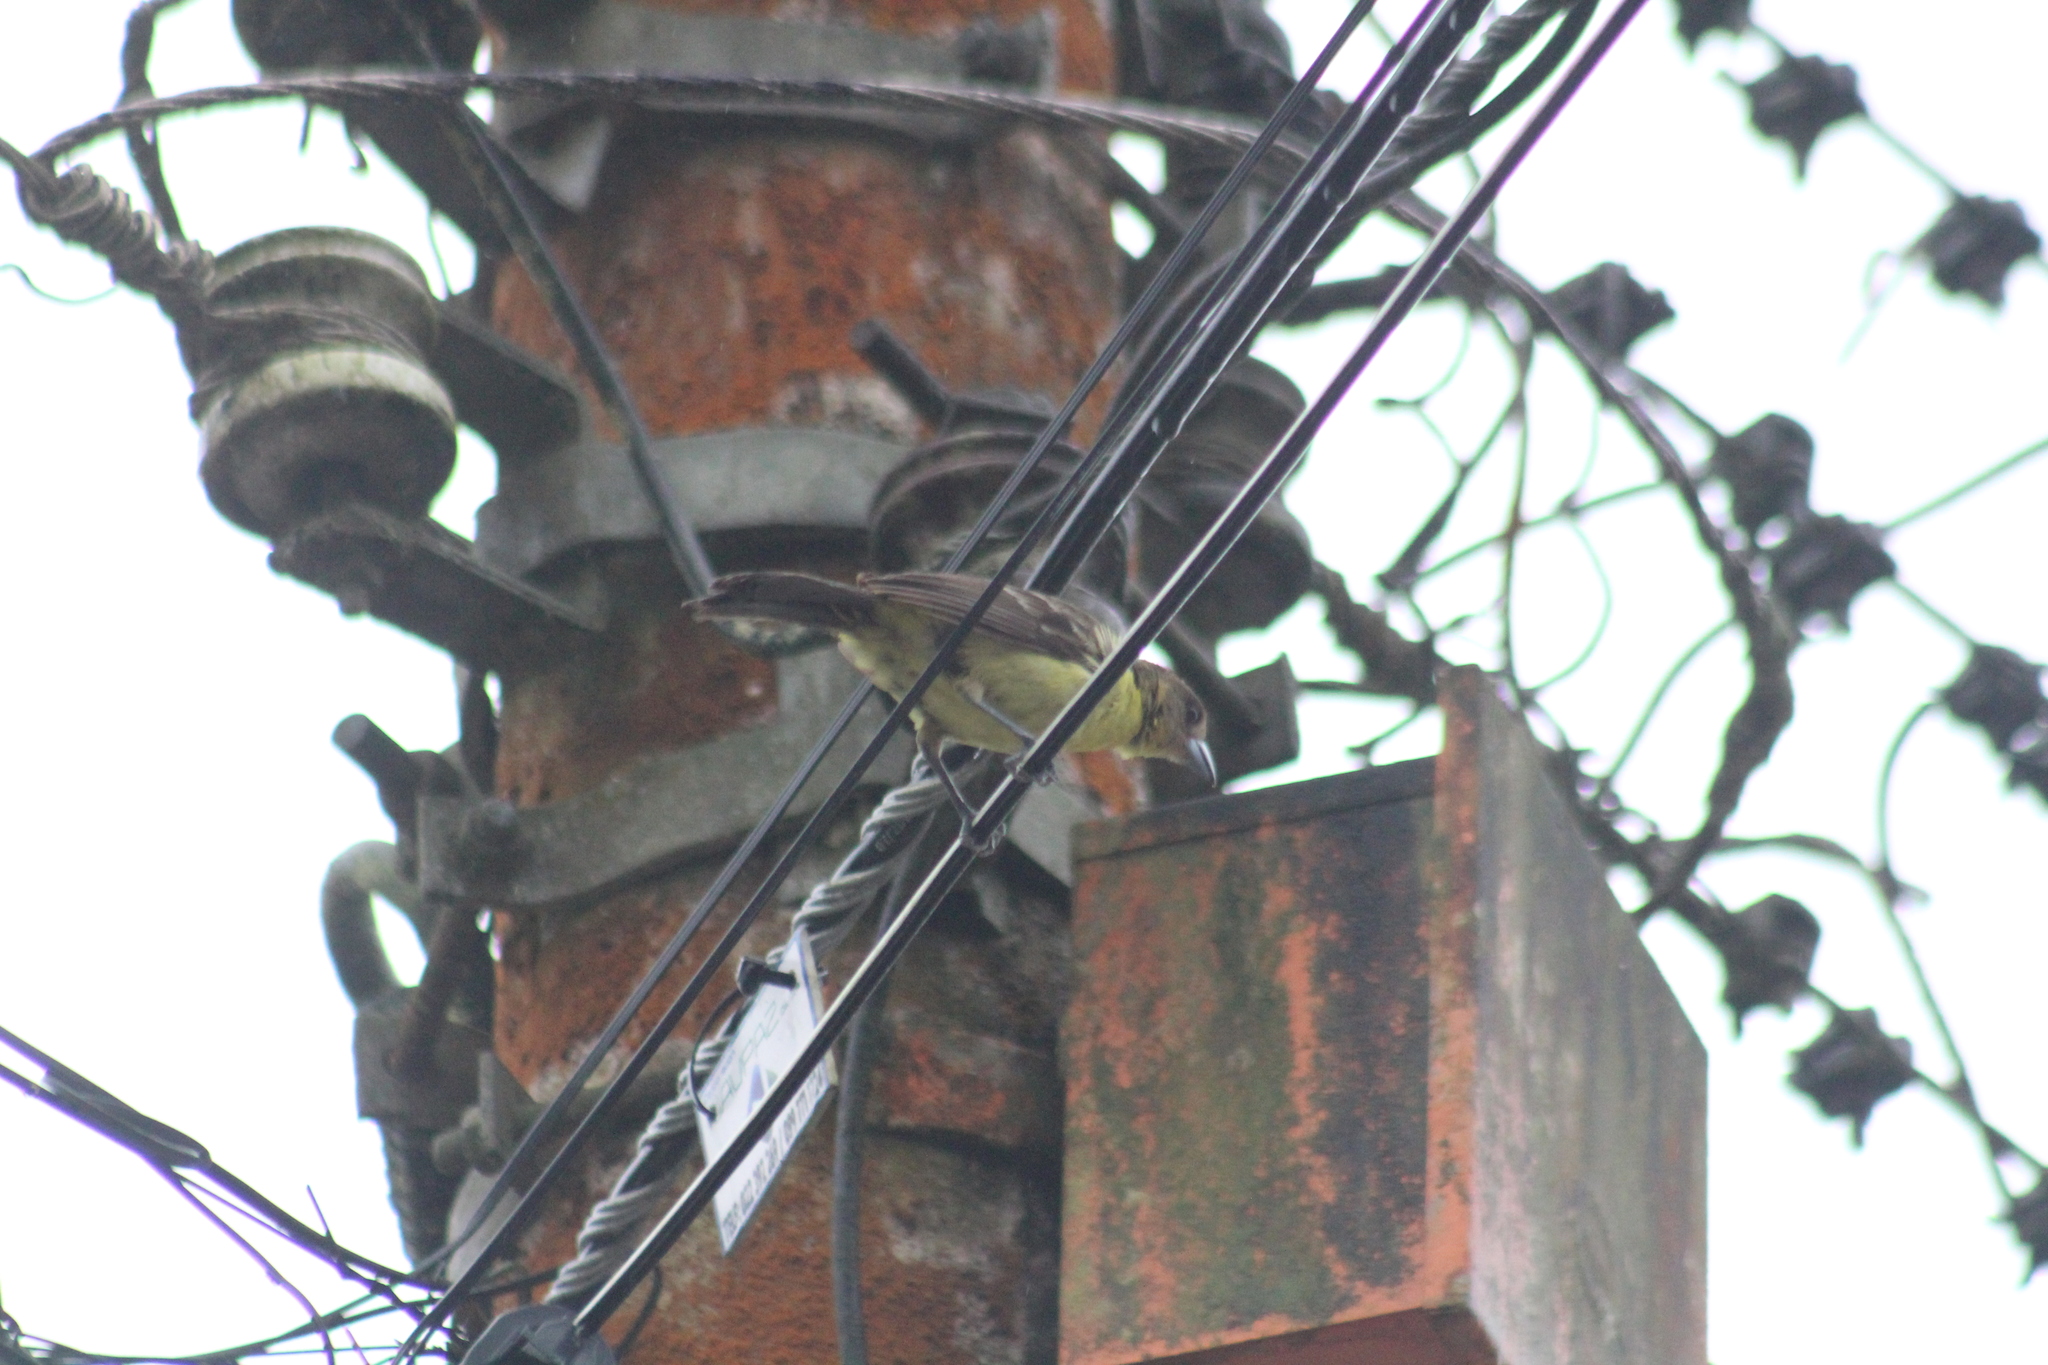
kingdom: Animalia
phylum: Chordata
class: Aves
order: Passeriformes
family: Thraupidae
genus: Ramphocelus
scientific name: Ramphocelus icteronotus
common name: Lemon-rumped tanager
